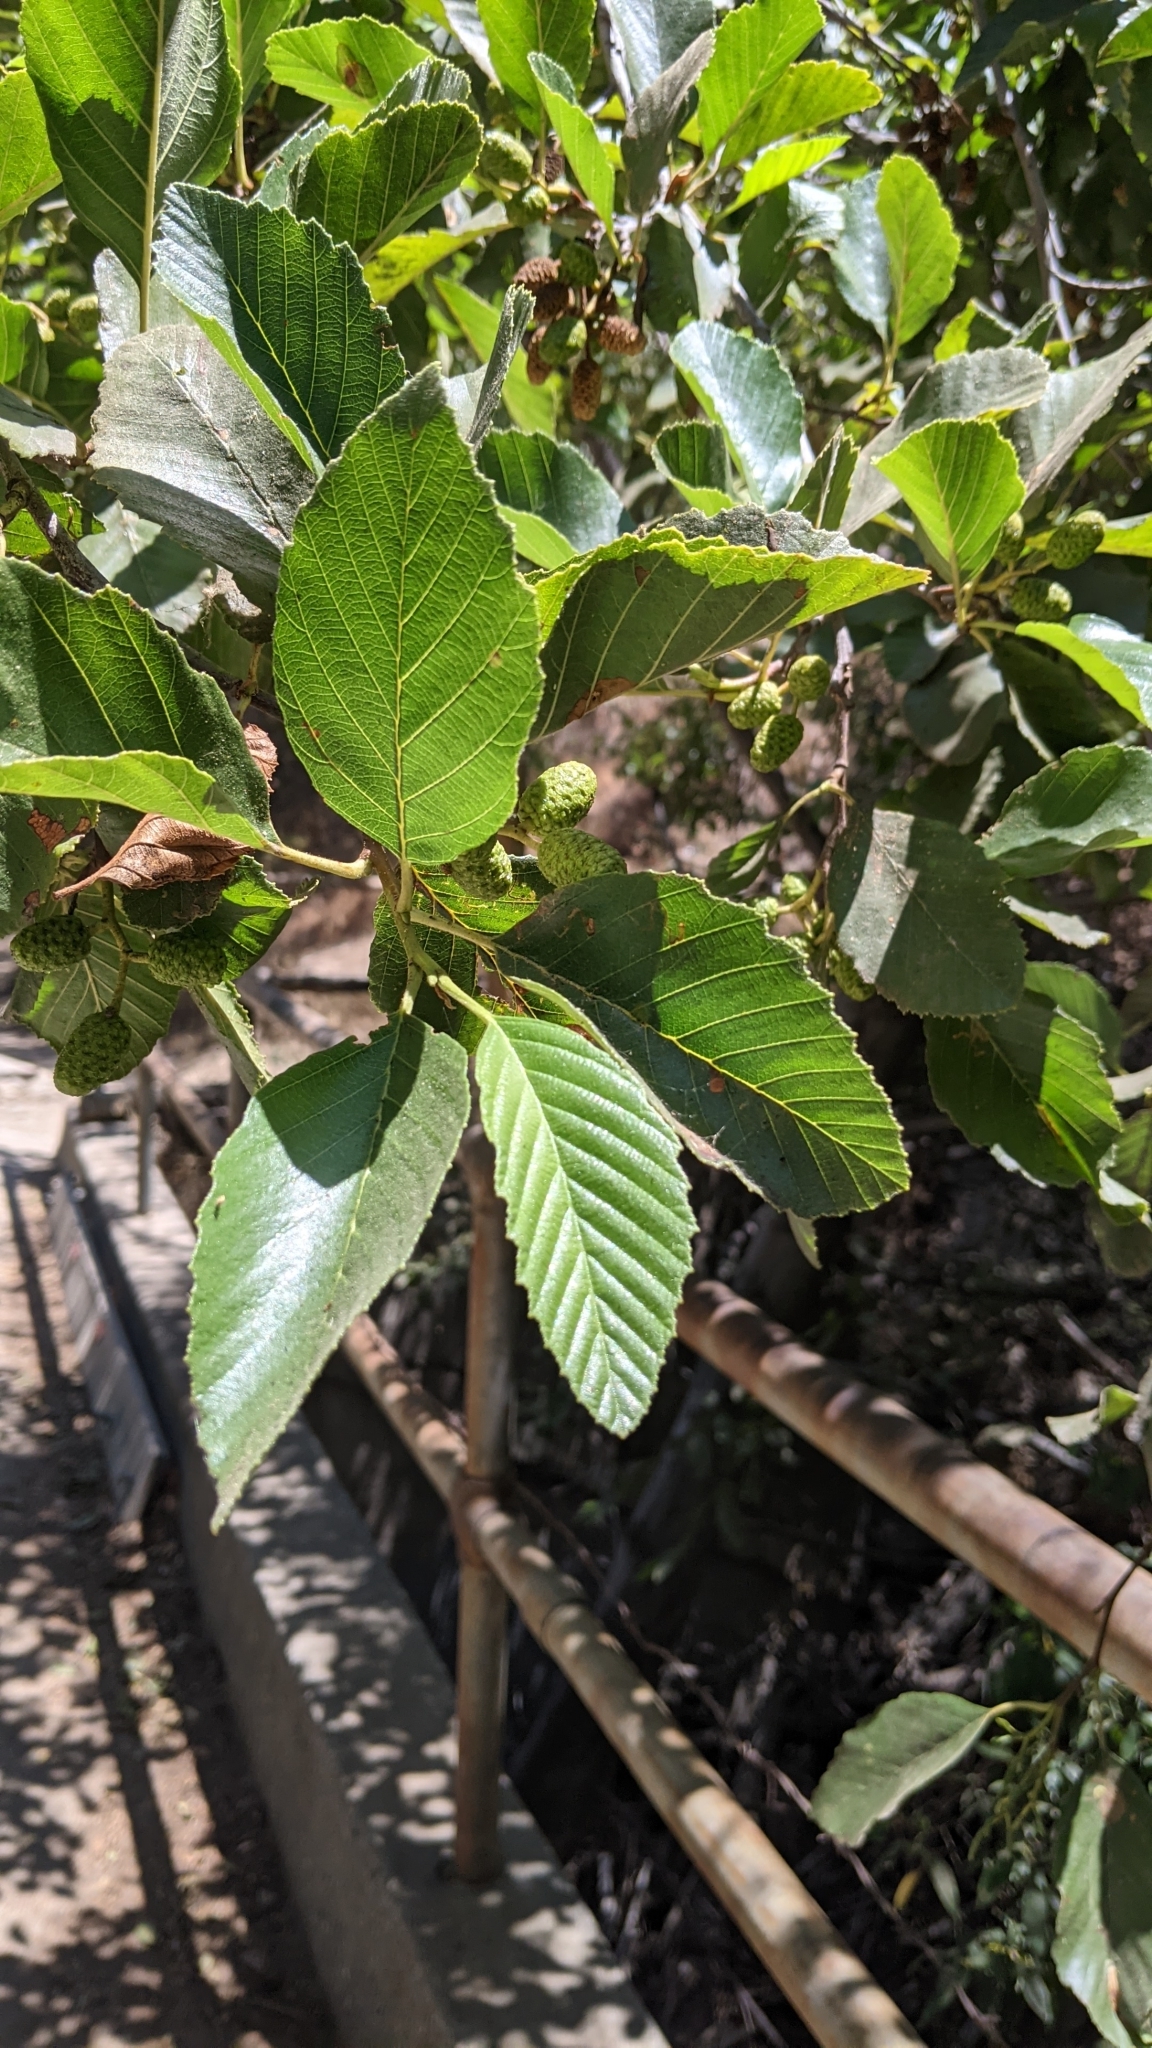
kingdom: Plantae
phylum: Tracheophyta
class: Magnoliopsida
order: Fagales
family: Betulaceae
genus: Alnus
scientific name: Alnus rhombifolia
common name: California alder
